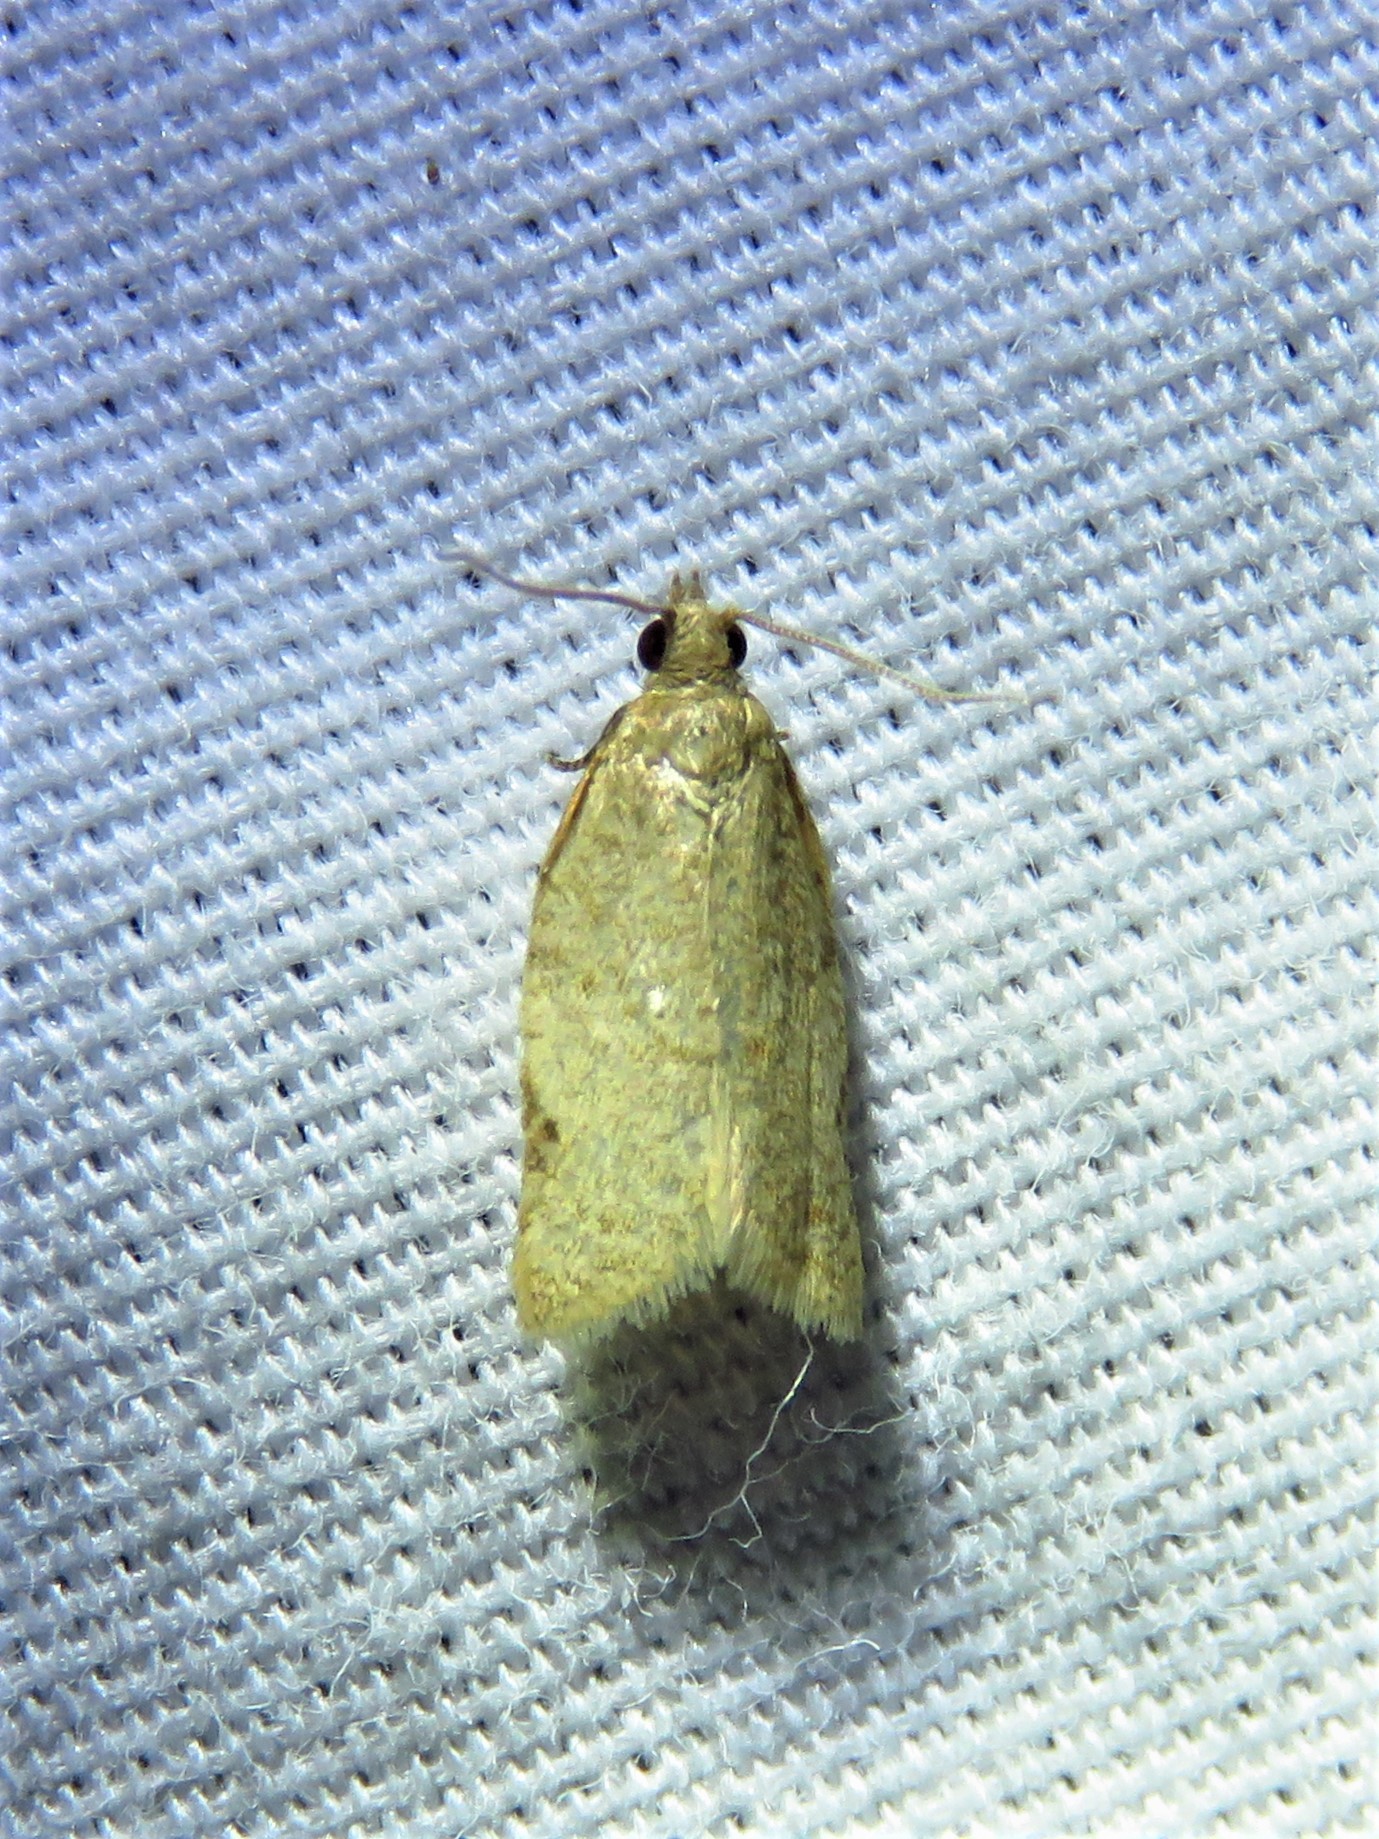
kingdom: Animalia
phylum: Arthropoda
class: Insecta
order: Lepidoptera
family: Tortricidae
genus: Clepsis
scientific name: Clepsis virescana
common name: Greenish apple moth
